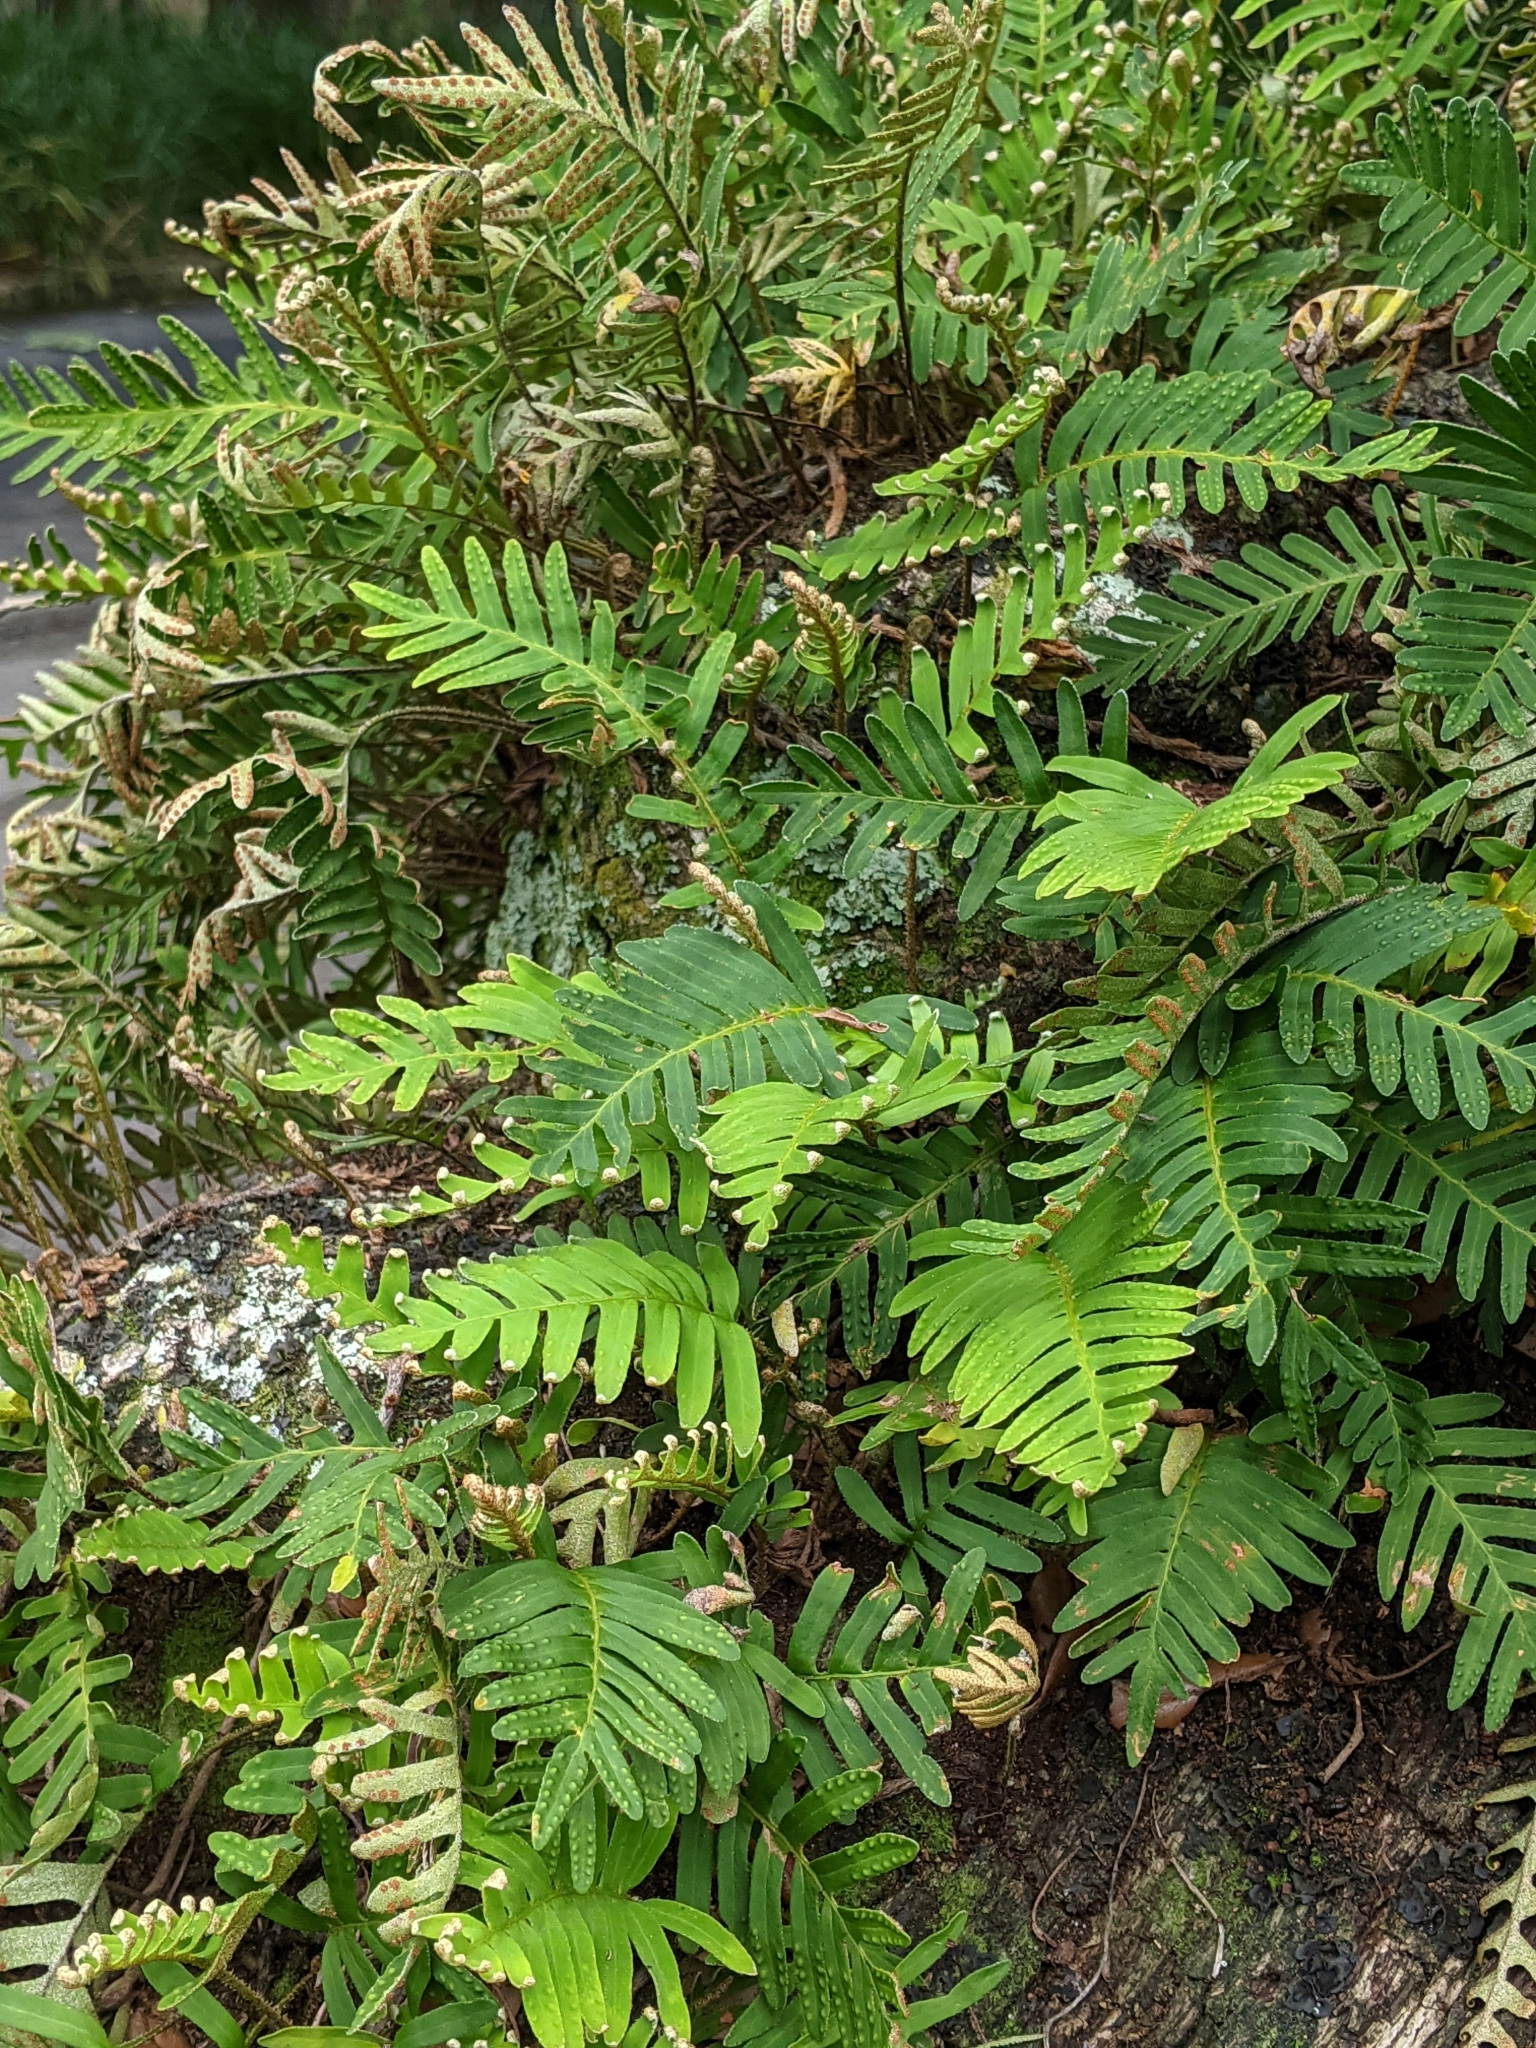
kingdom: Plantae
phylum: Tracheophyta
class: Polypodiopsida
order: Polypodiales
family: Polypodiaceae
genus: Pleopeltis
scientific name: Pleopeltis michauxiana
